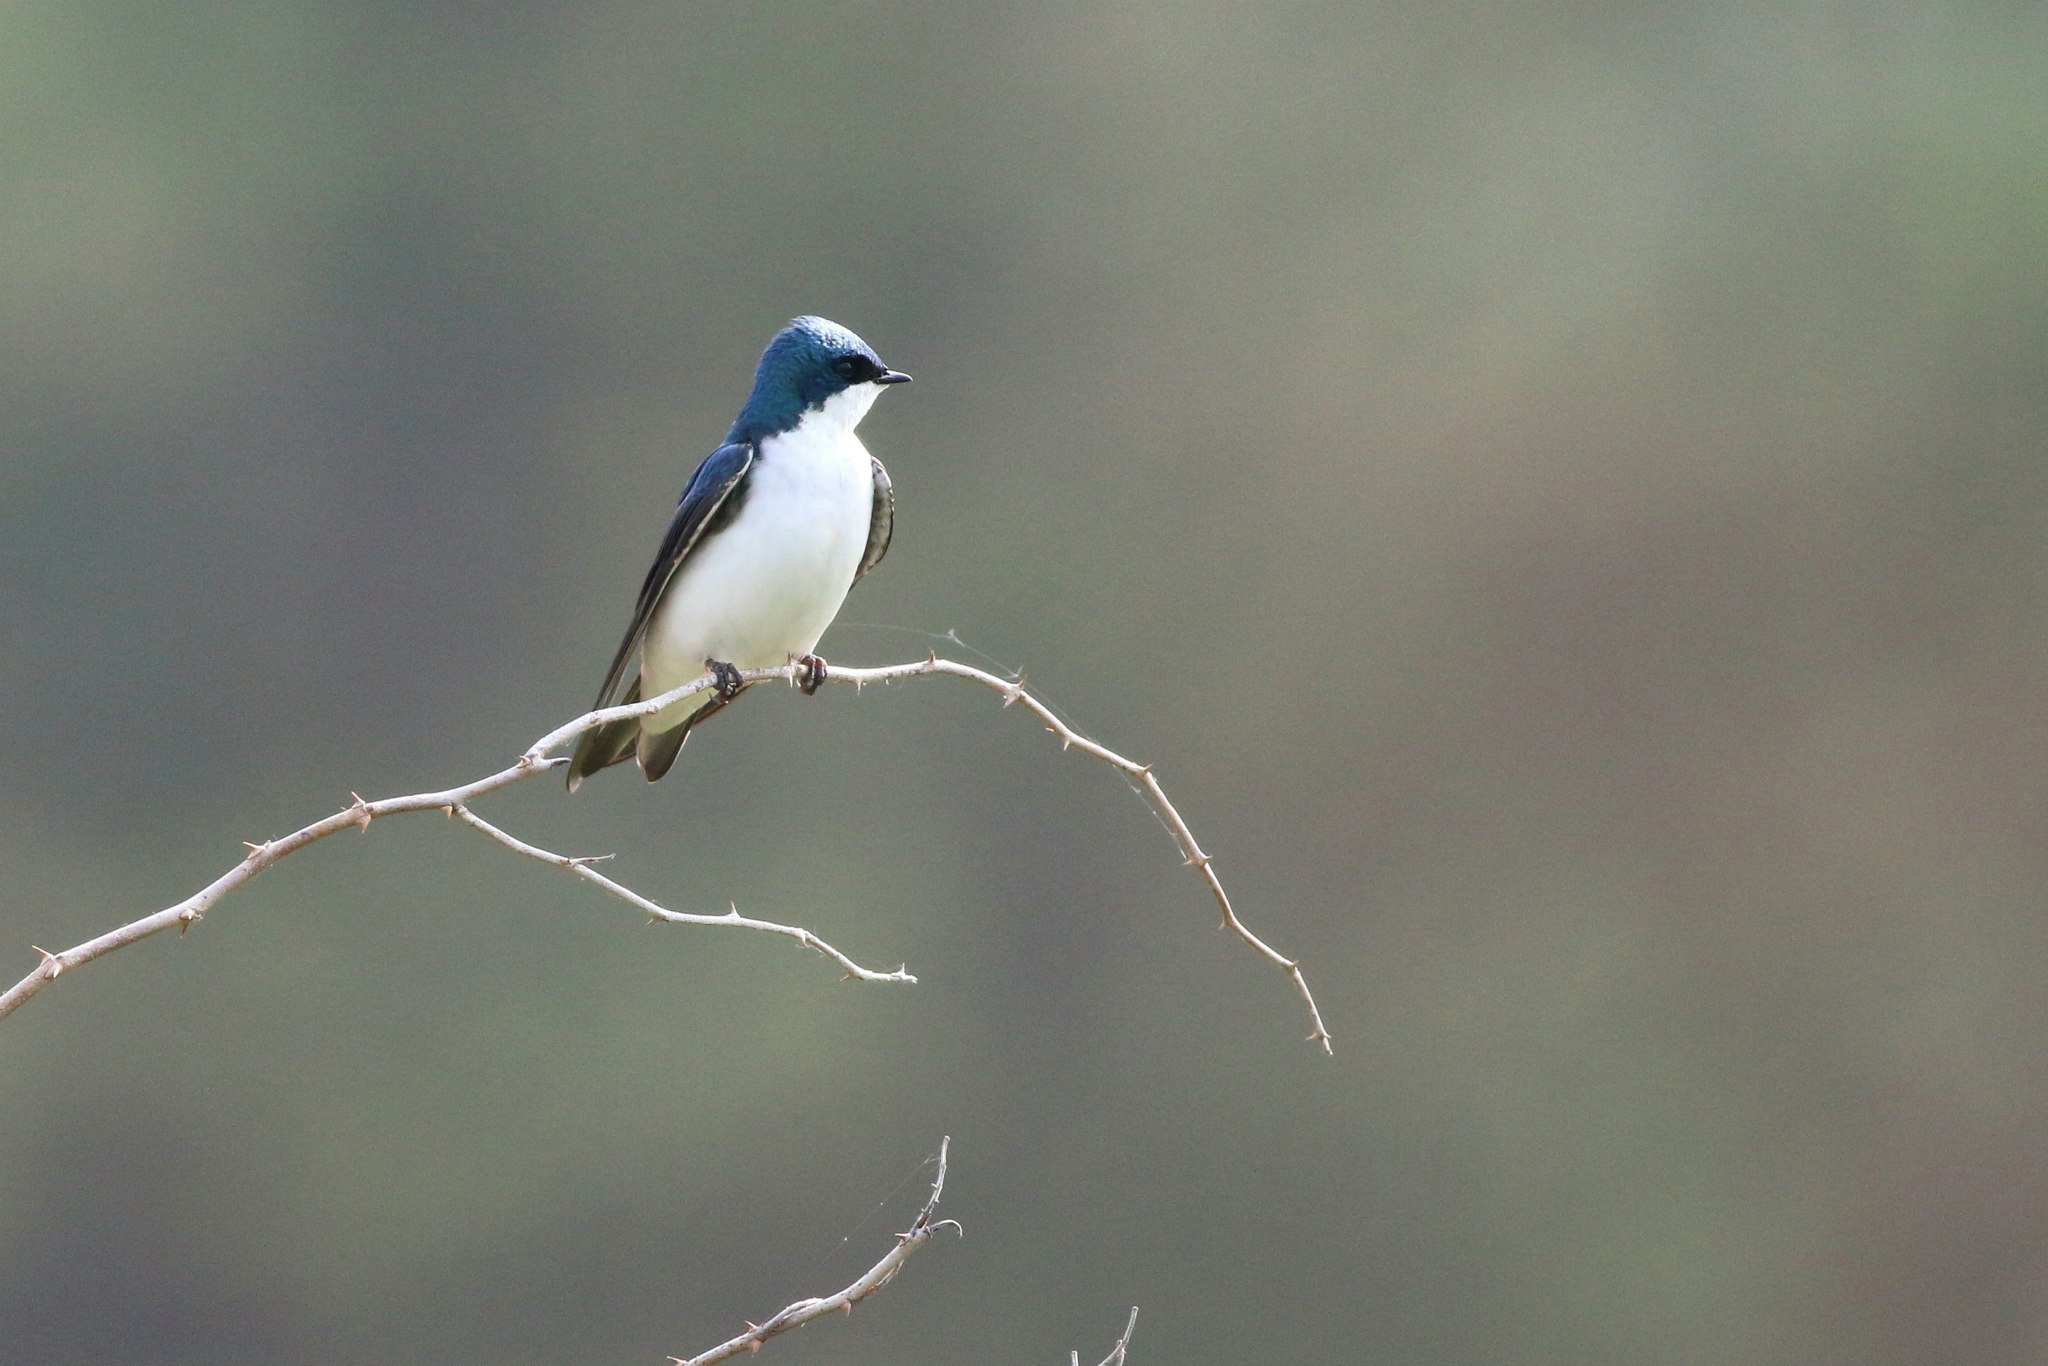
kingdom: Animalia
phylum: Chordata
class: Aves
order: Passeriformes
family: Hirundinidae
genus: Tachycineta
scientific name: Tachycineta bicolor
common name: Tree swallow
